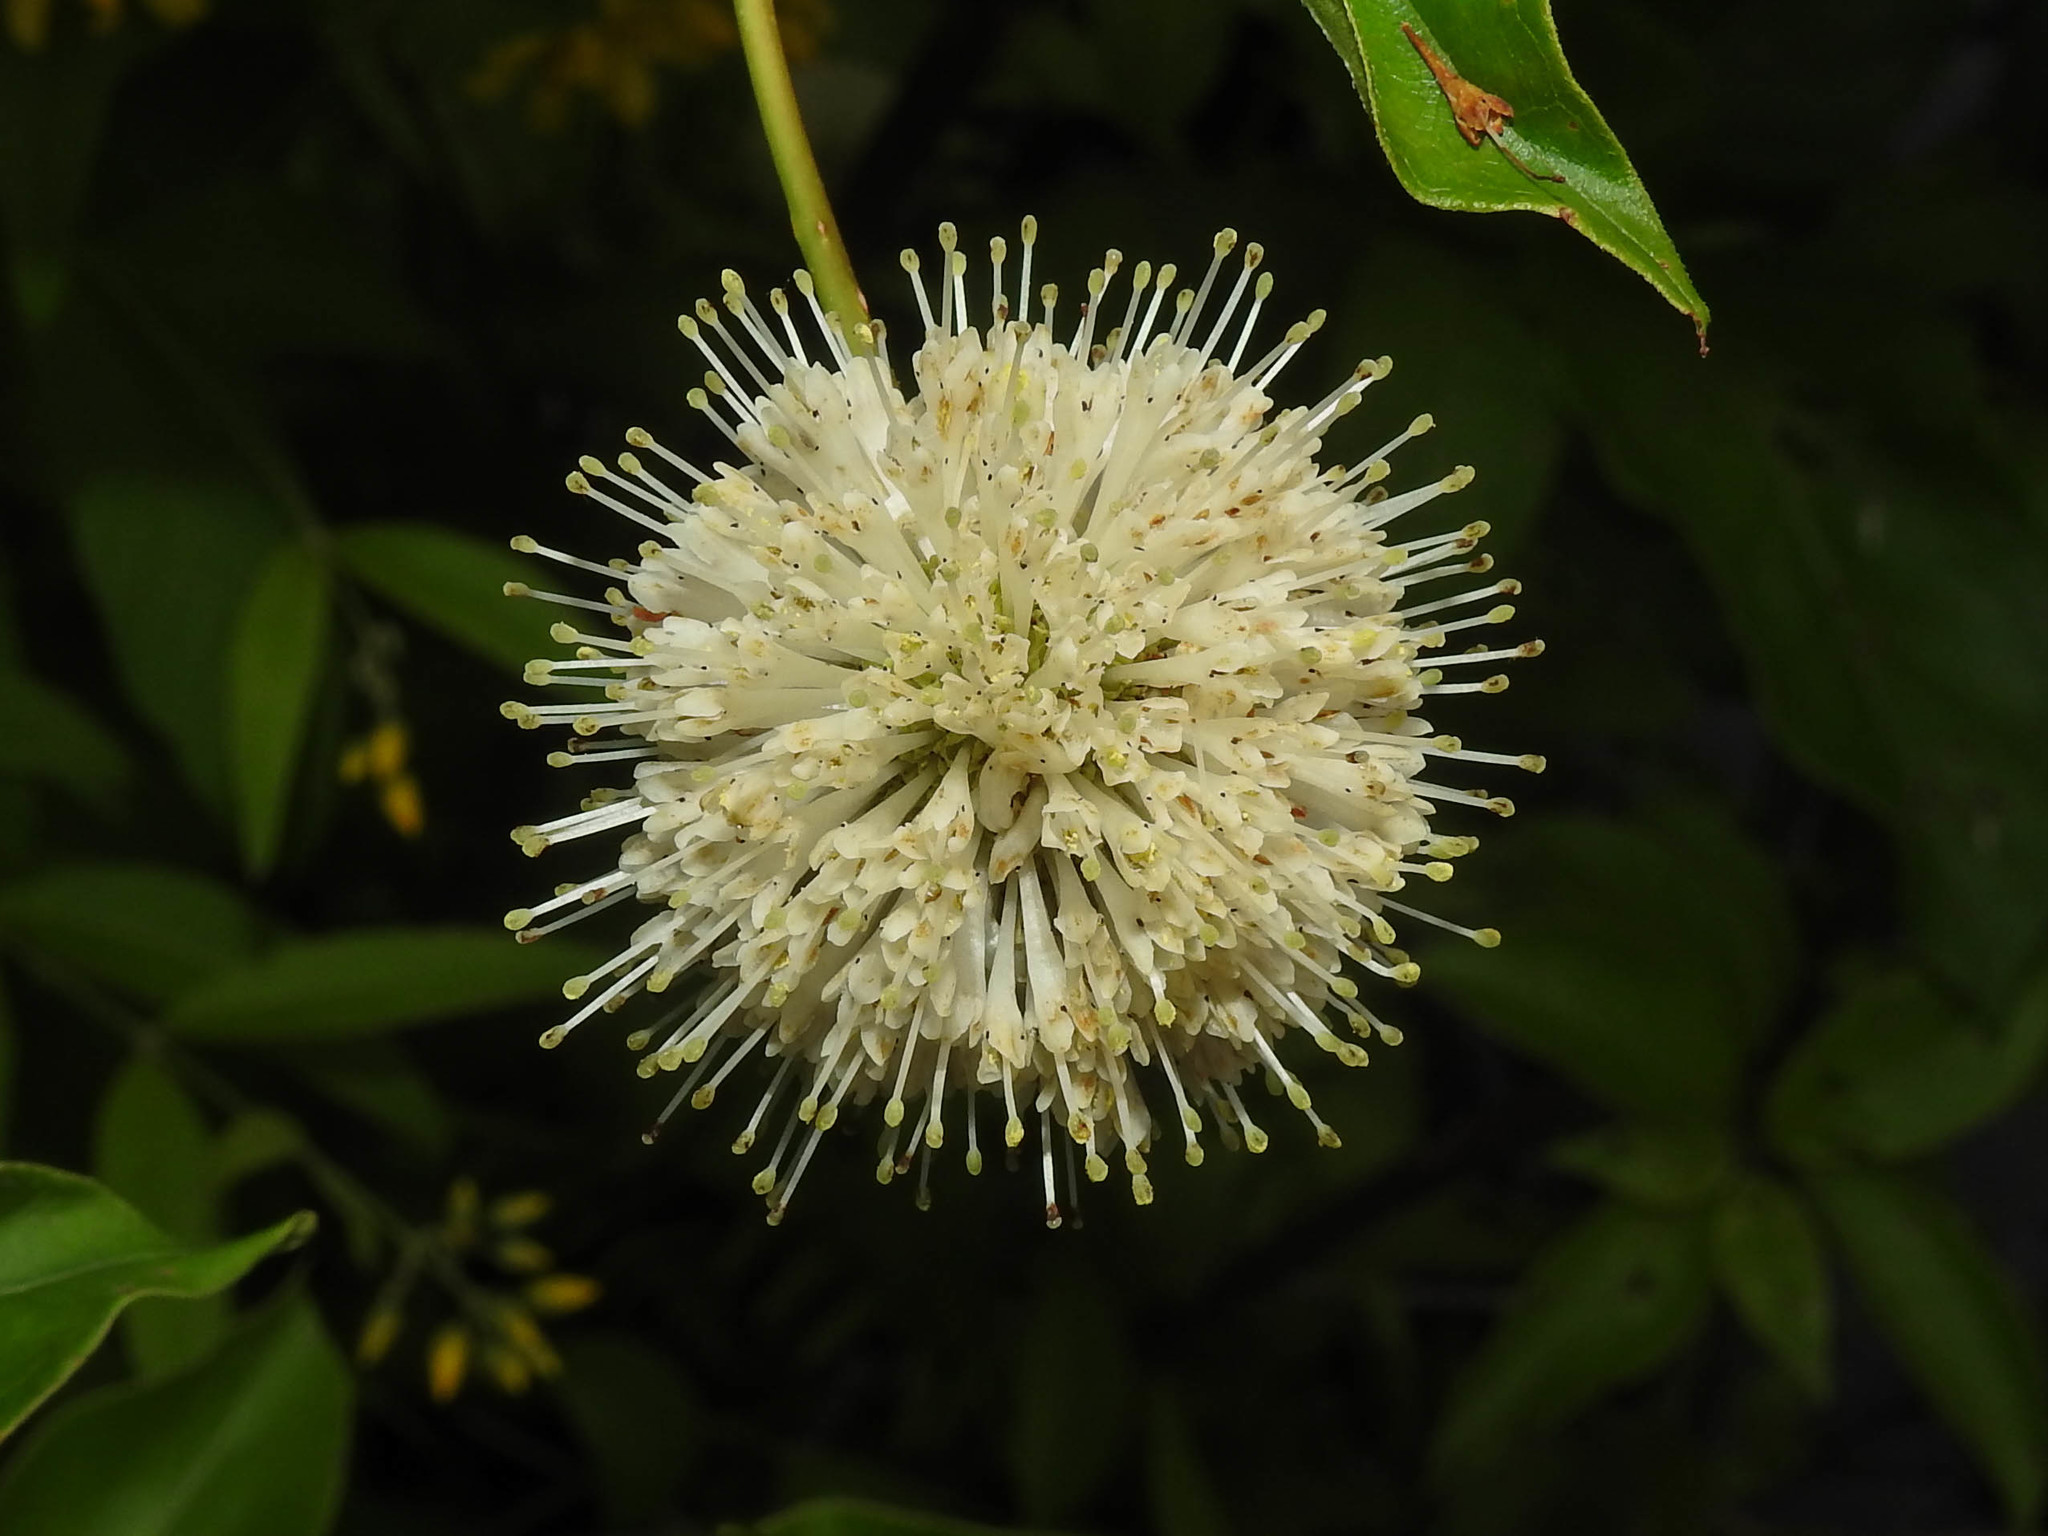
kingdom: Plantae
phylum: Tracheophyta
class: Magnoliopsida
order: Gentianales
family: Rubiaceae
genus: Cephalanthus
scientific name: Cephalanthus occidentalis
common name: Button-willow
